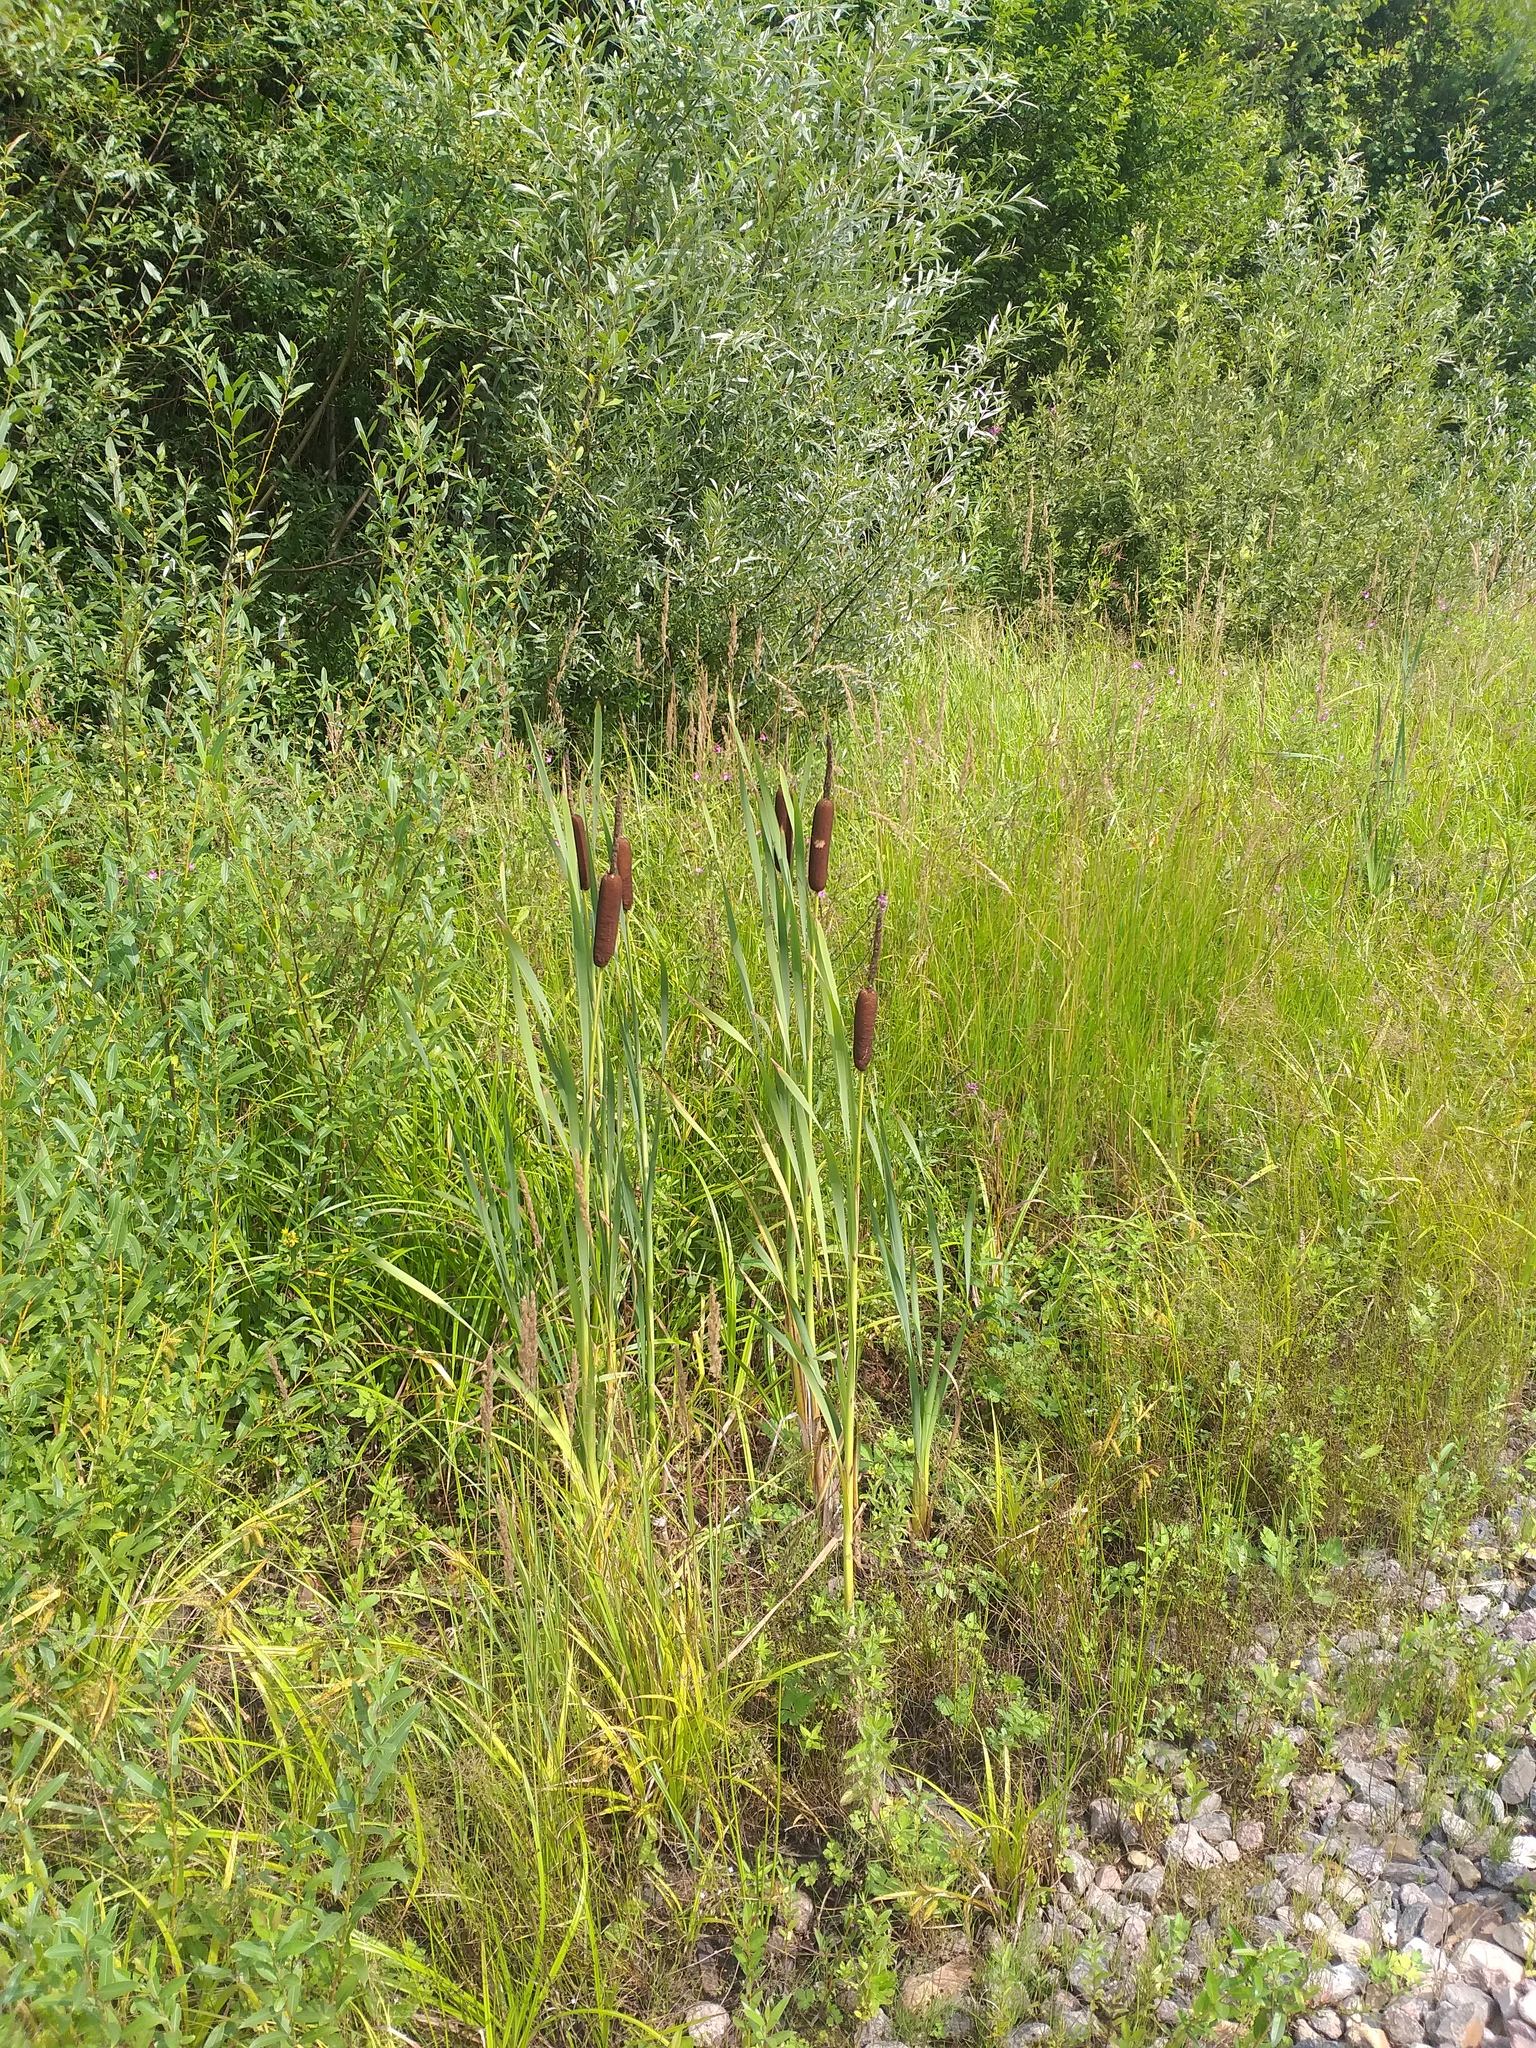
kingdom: Plantae
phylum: Tracheophyta
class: Liliopsida
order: Poales
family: Typhaceae
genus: Typha
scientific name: Typha latifolia
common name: Broadleaf cattail
